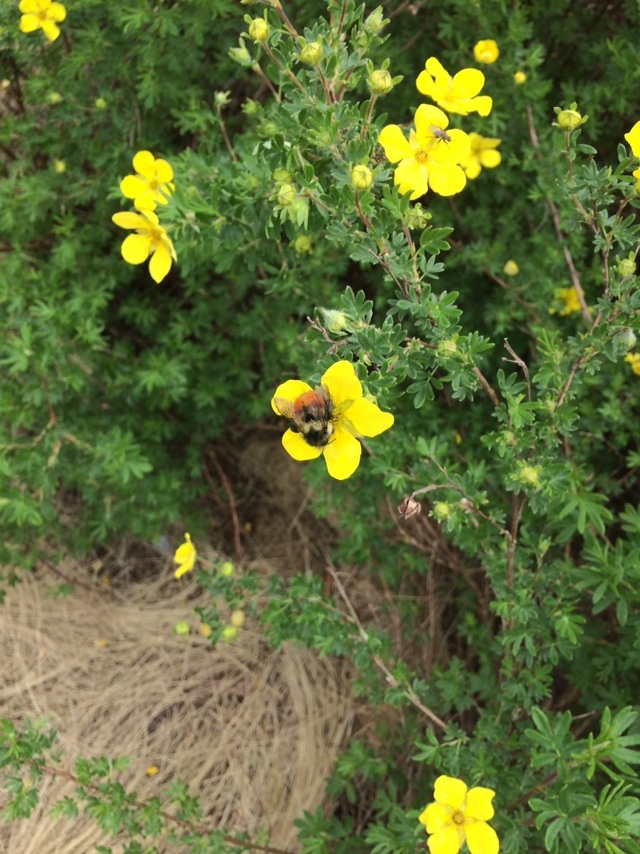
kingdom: Animalia
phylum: Arthropoda
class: Insecta
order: Hymenoptera
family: Apidae
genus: Bombus
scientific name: Bombus melanopygus
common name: Black tail bumble bee
